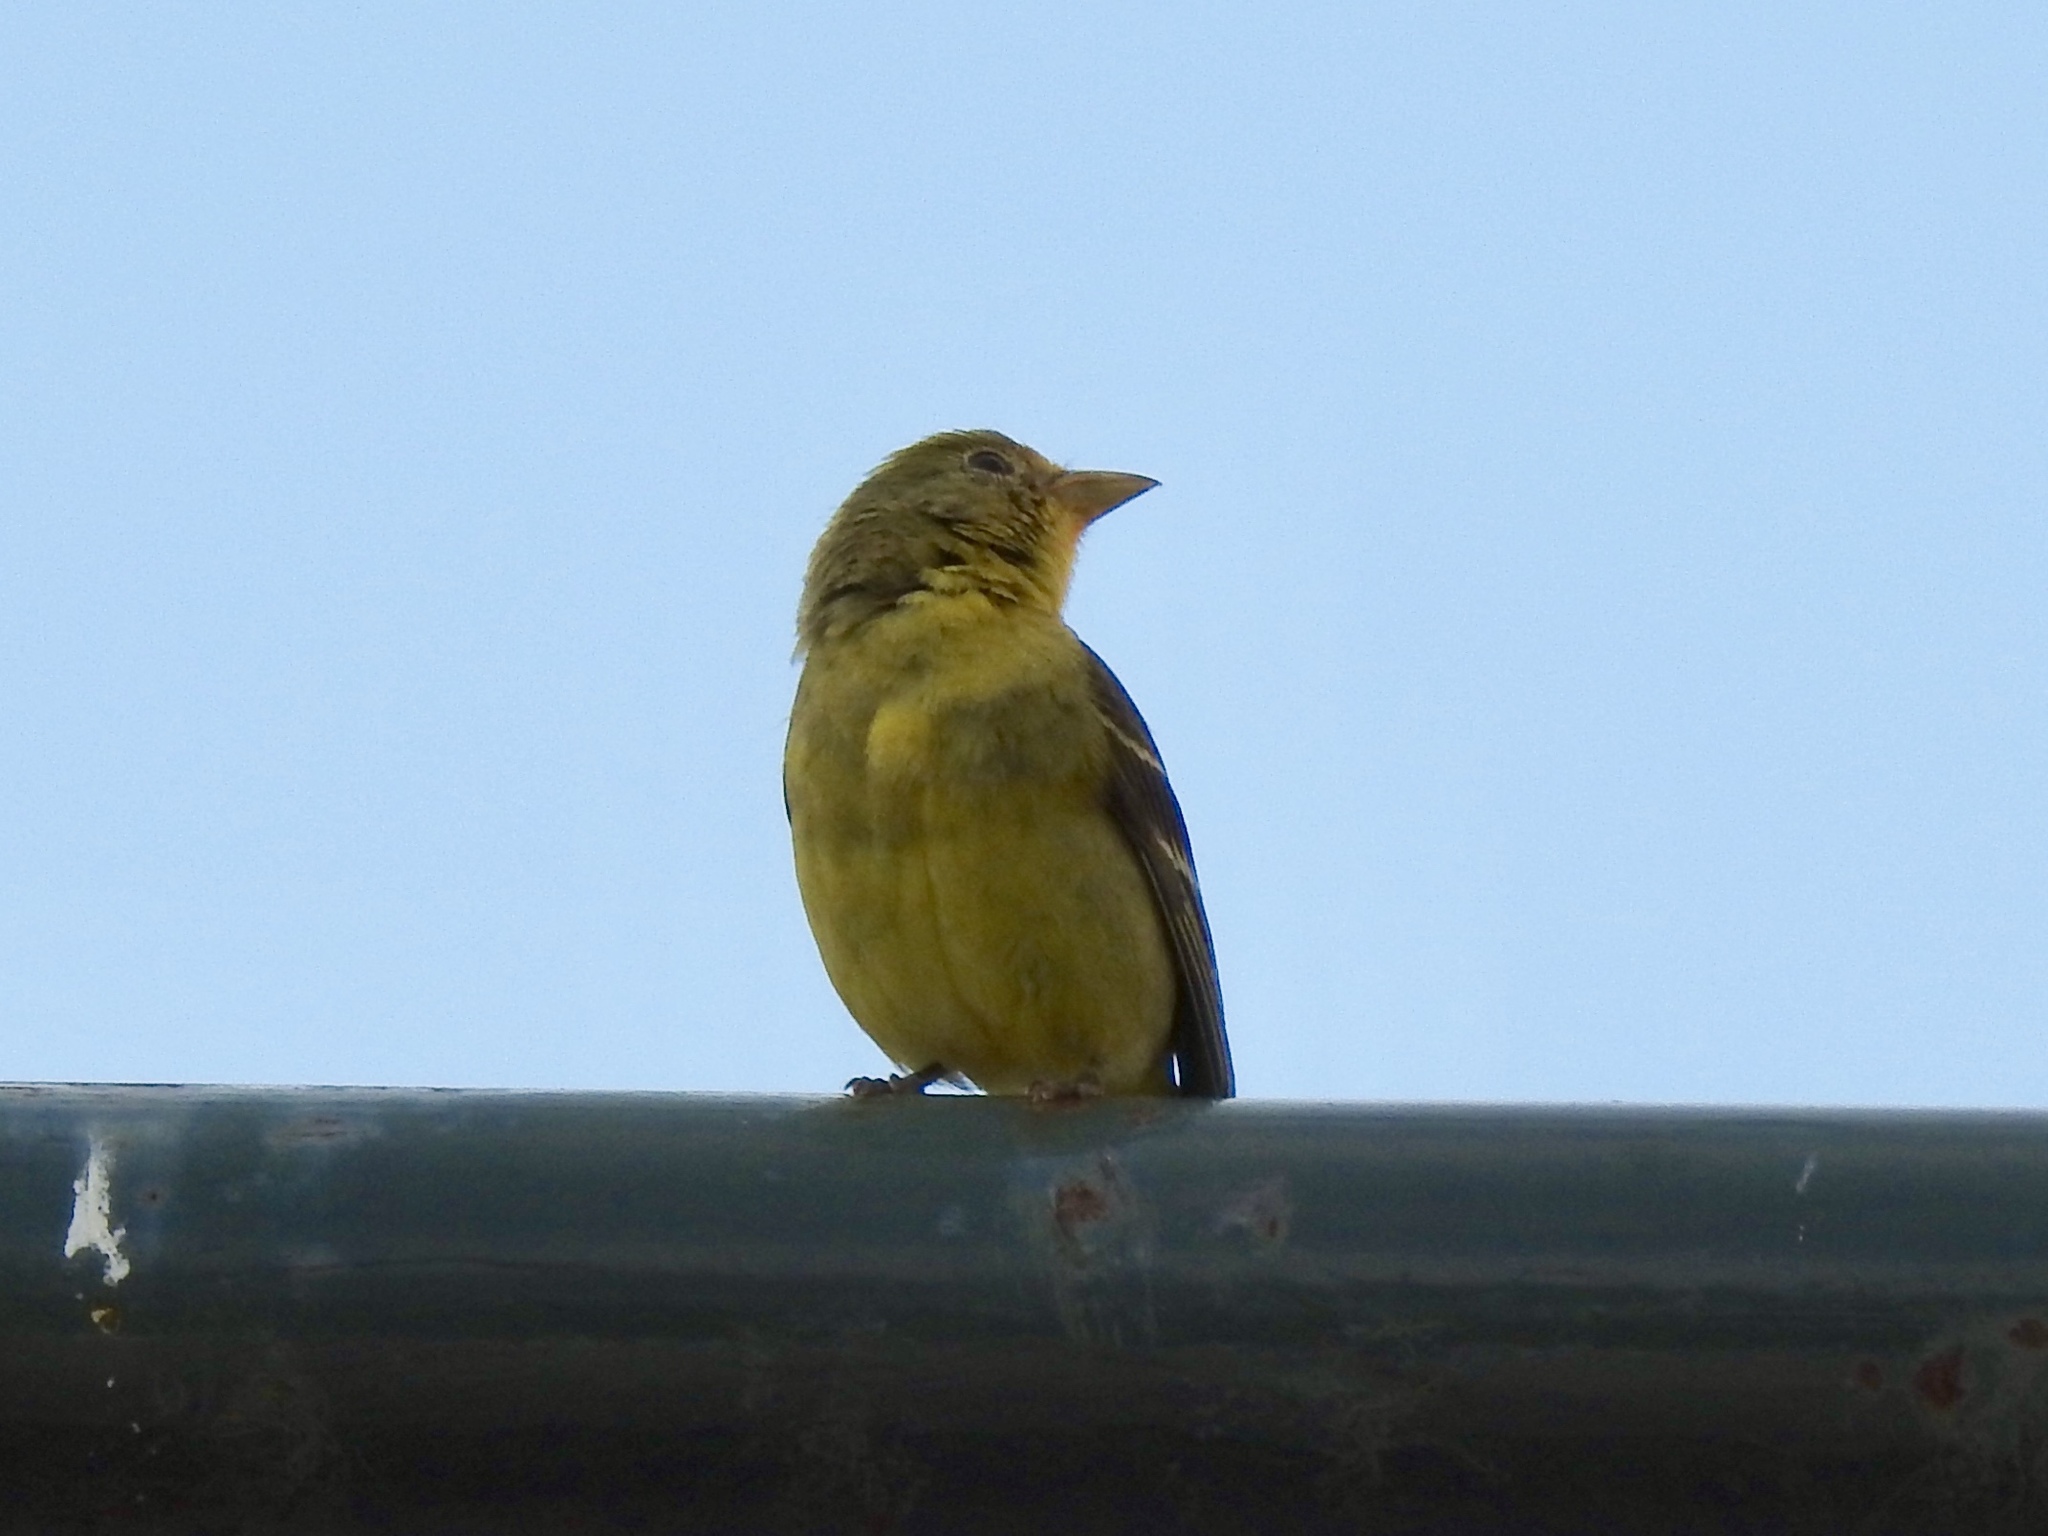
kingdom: Animalia
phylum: Chordata
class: Aves
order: Passeriformes
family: Cardinalidae
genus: Piranga
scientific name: Piranga ludoviciana
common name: Western tanager
